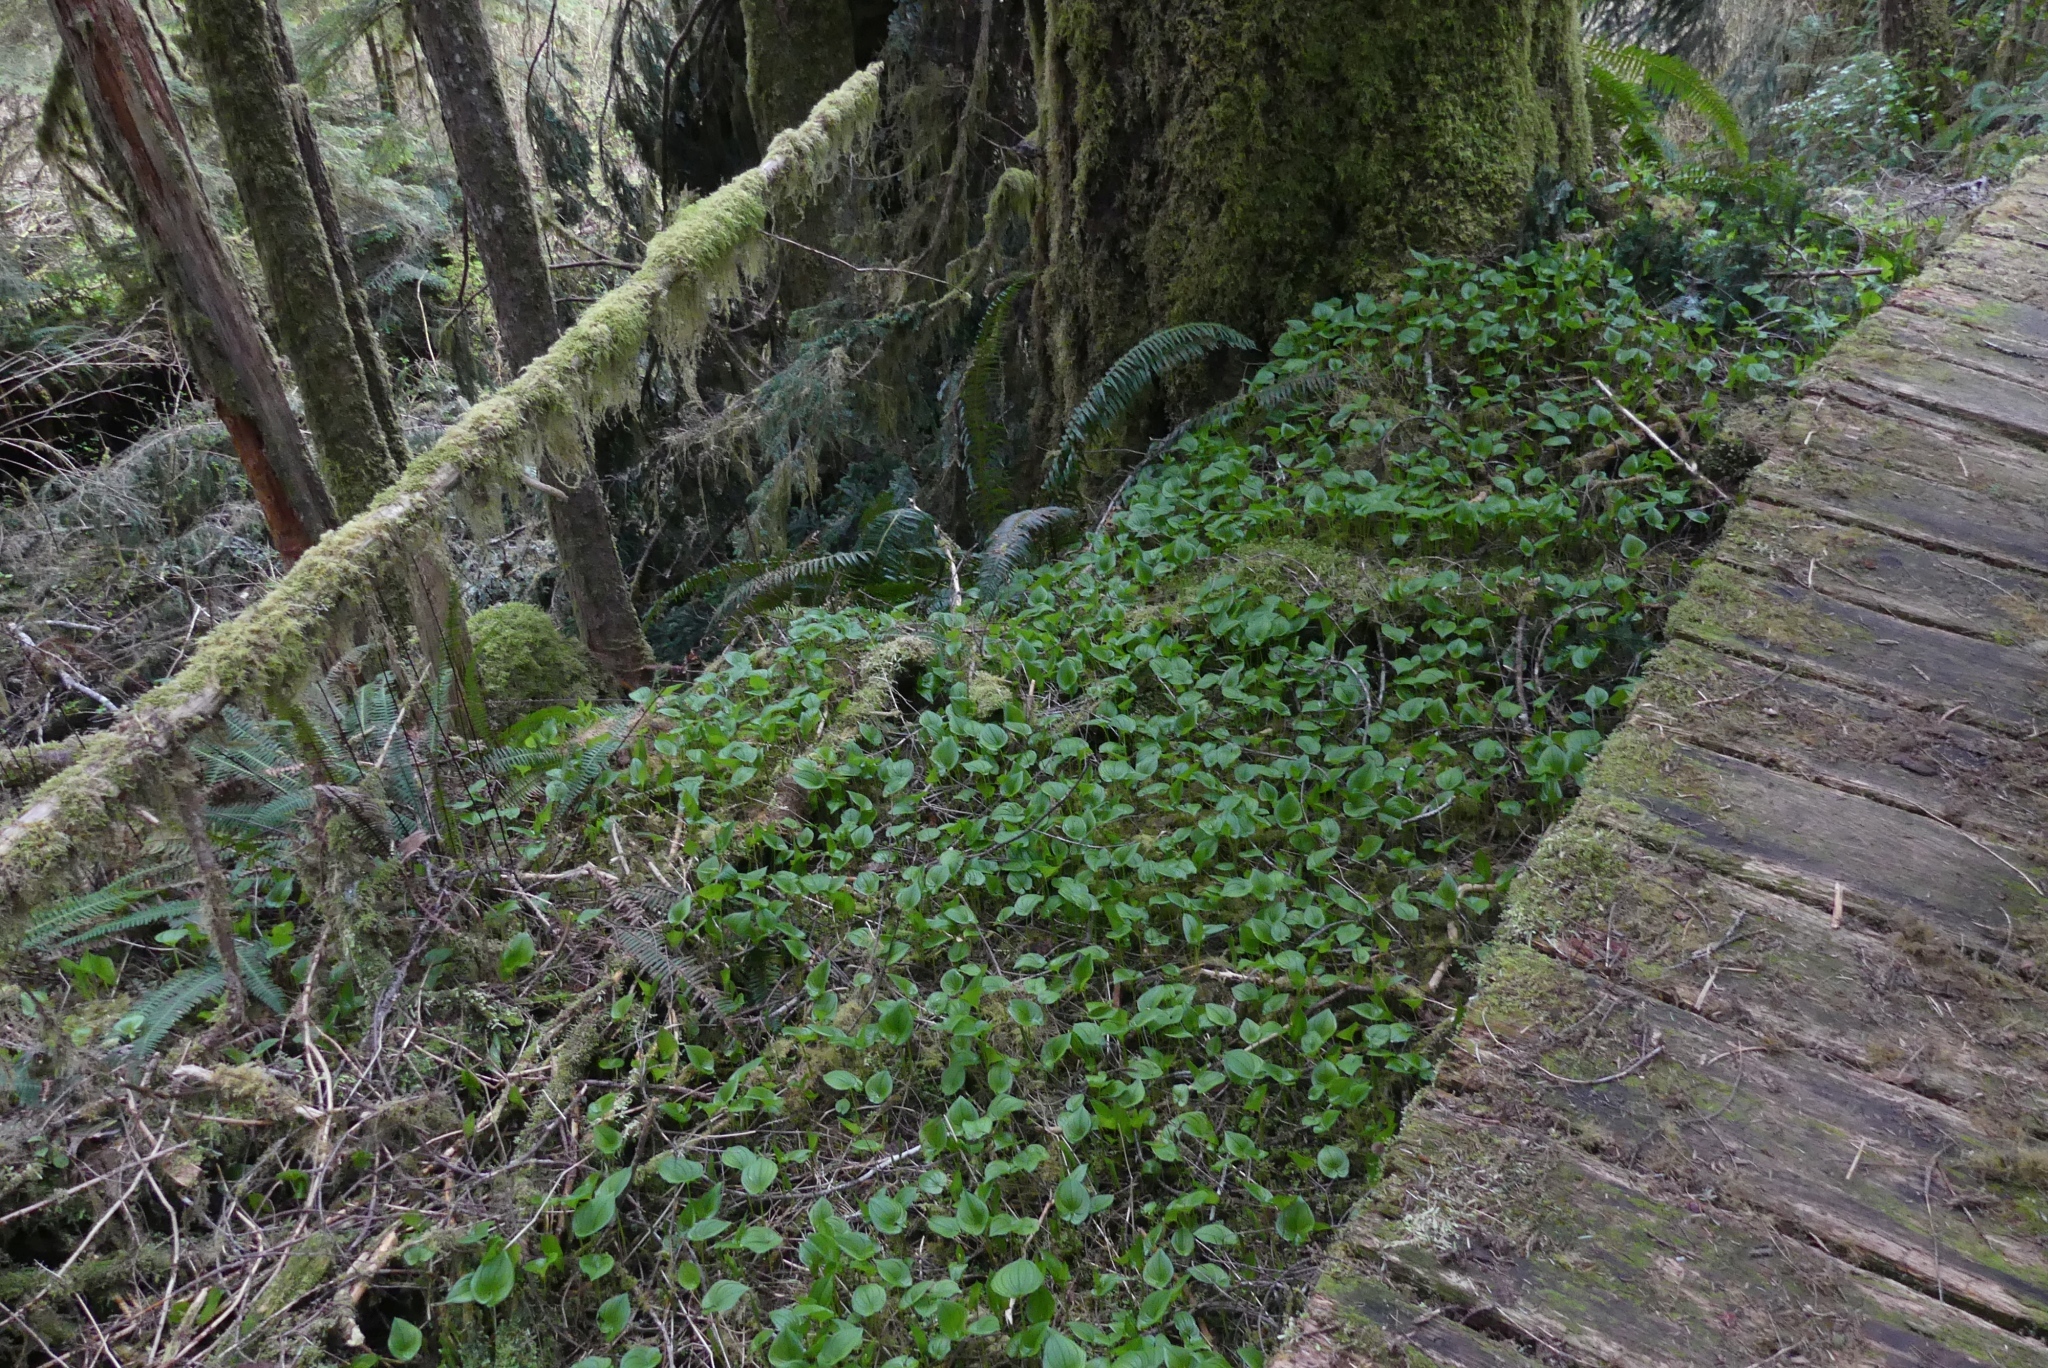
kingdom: Plantae
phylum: Tracheophyta
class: Liliopsida
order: Asparagales
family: Asparagaceae
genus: Maianthemum
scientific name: Maianthemum dilatatum
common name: False lily-of-the-valley
